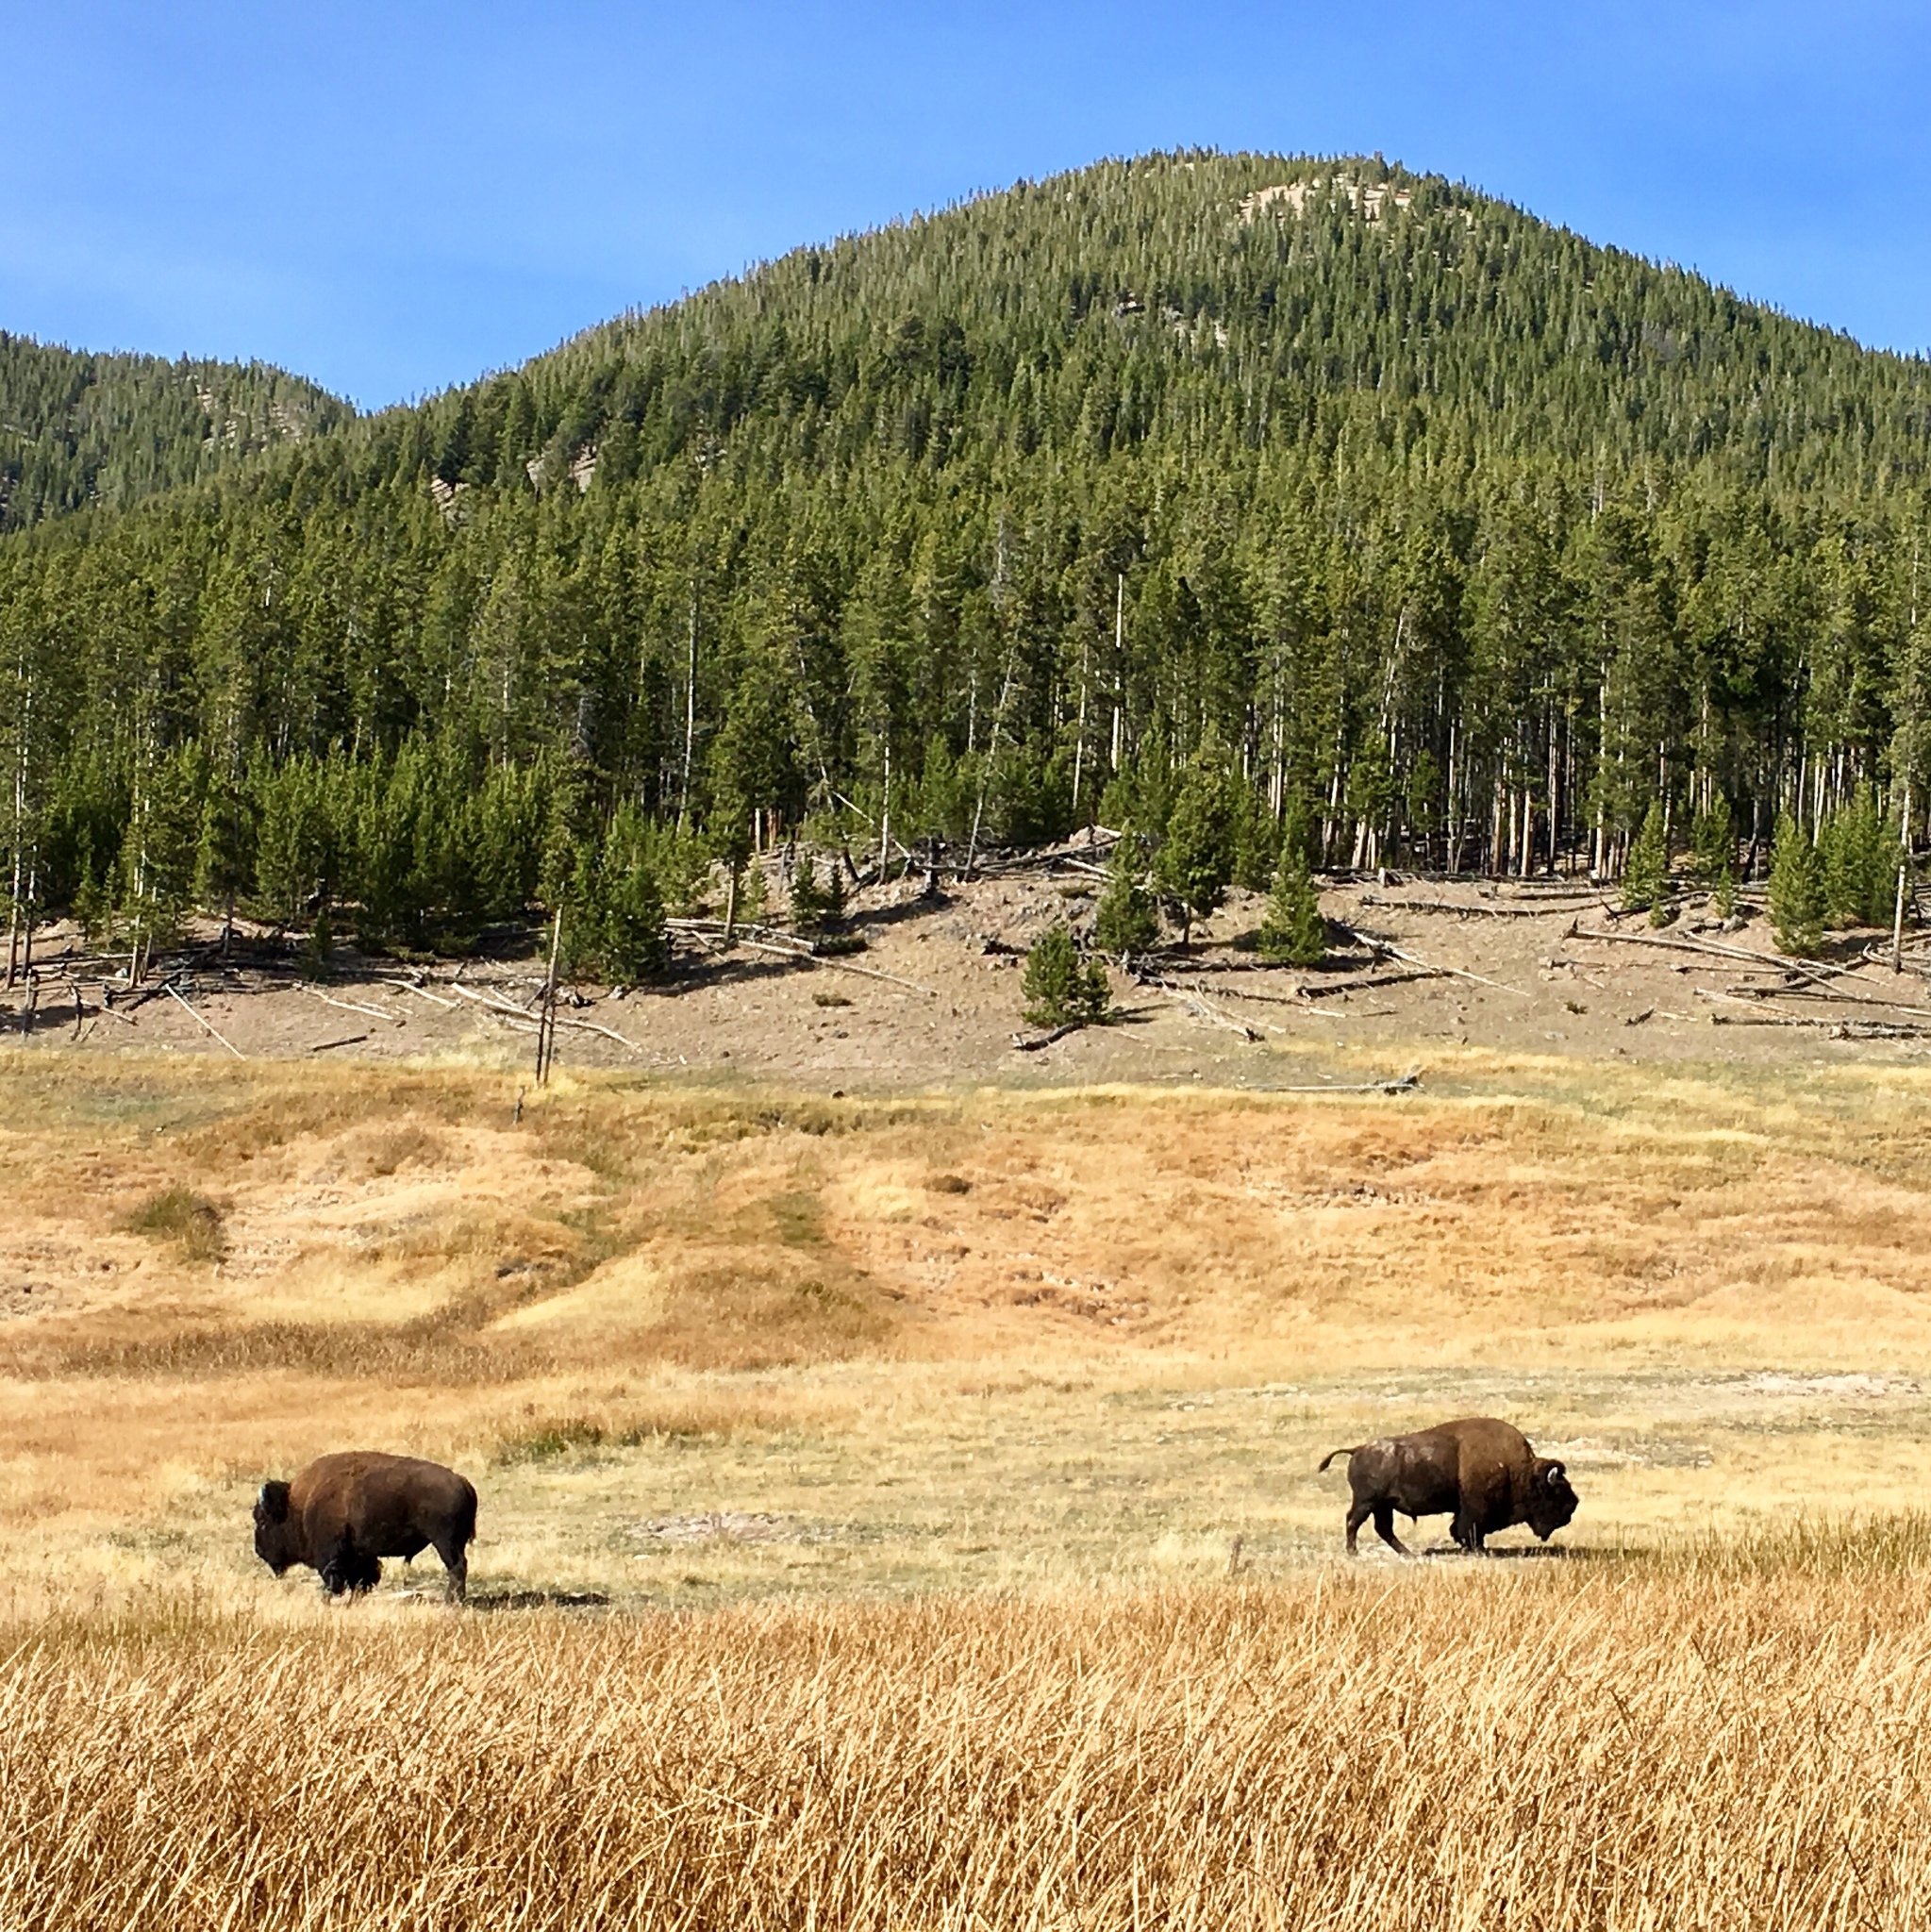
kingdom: Animalia
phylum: Chordata
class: Mammalia
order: Artiodactyla
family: Bovidae
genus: Bison
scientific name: Bison bison
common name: American bison
